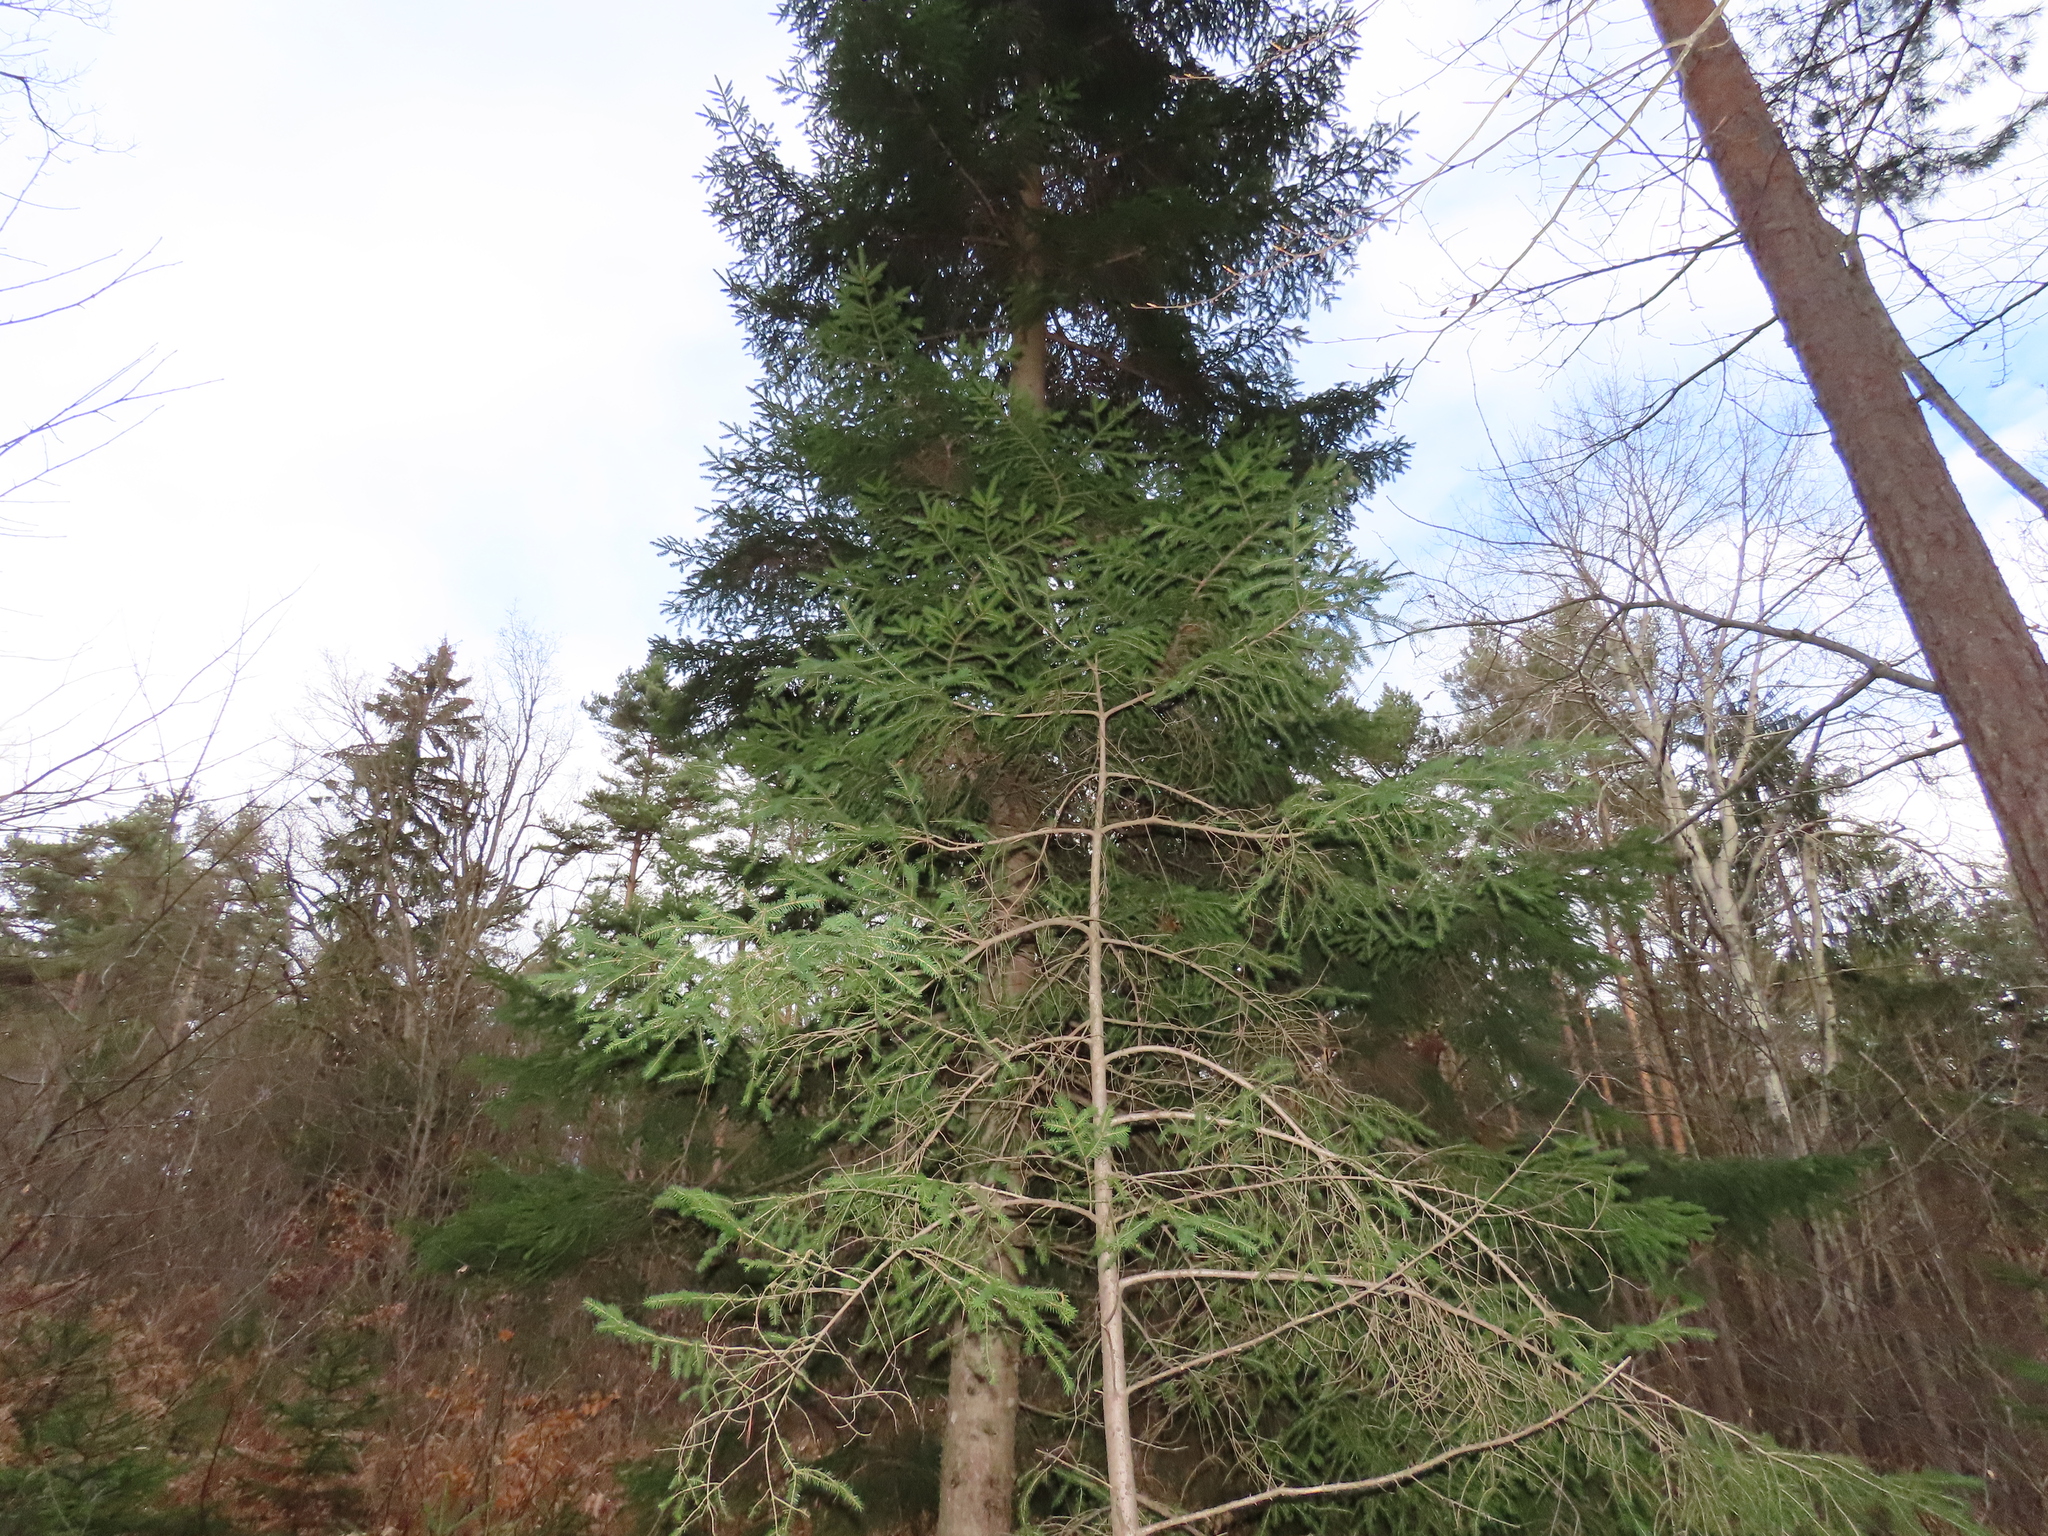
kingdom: Plantae
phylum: Tracheophyta
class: Pinopsida
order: Pinales
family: Pinaceae
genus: Picea
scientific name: Picea abies
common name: Norway spruce
